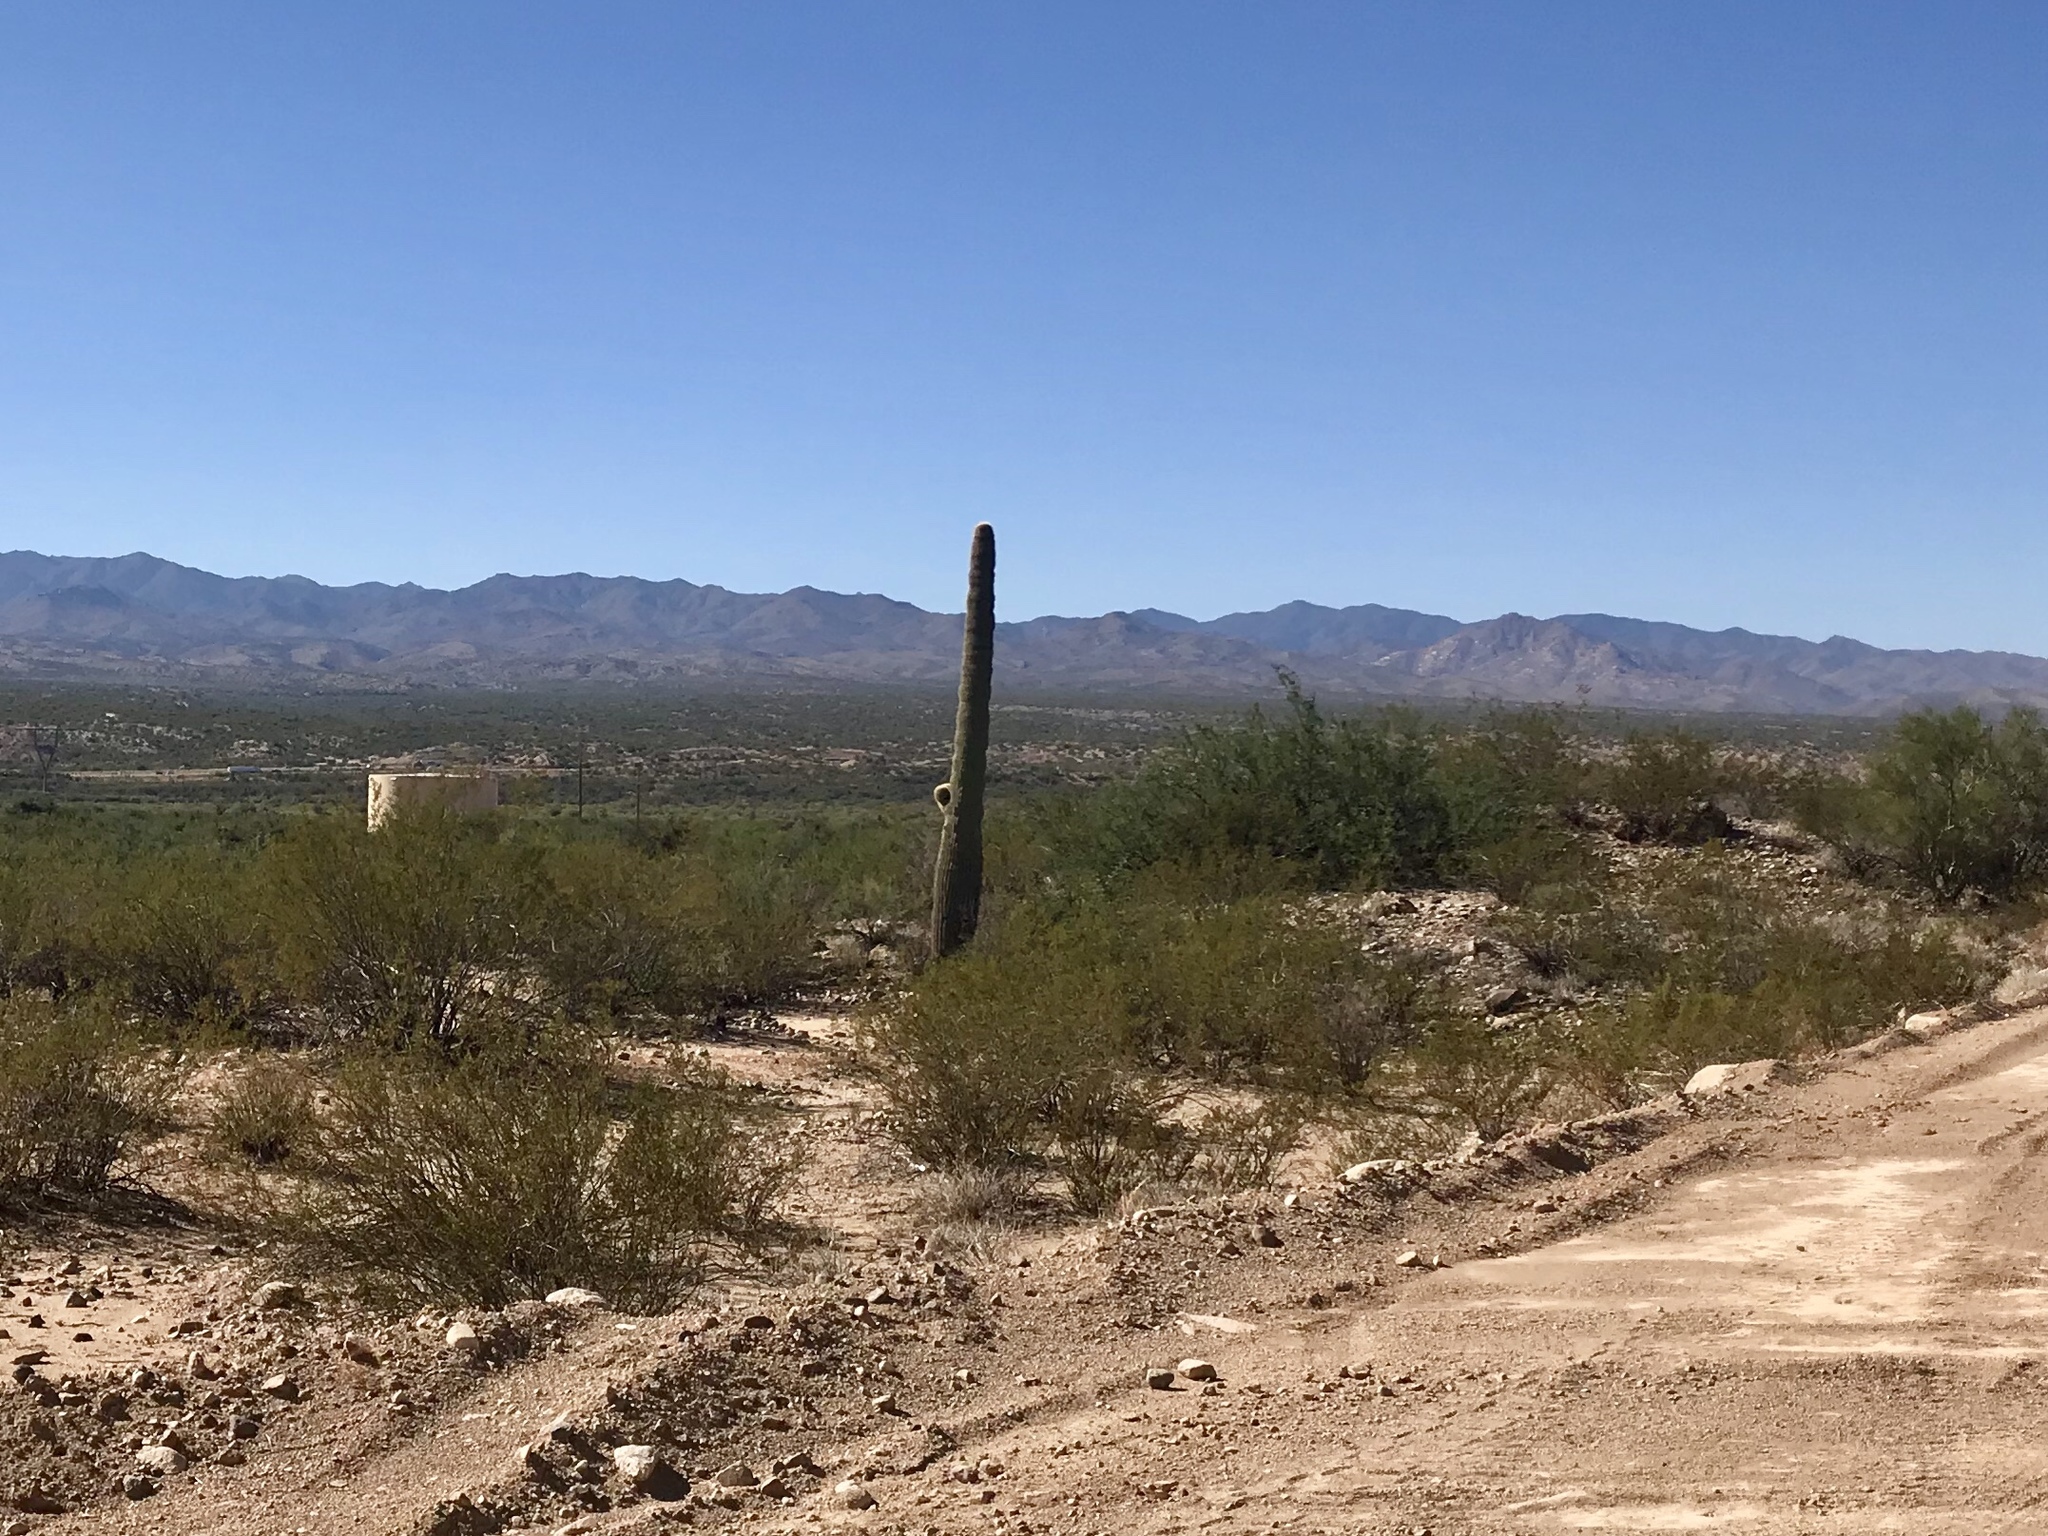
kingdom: Plantae
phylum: Tracheophyta
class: Magnoliopsida
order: Caryophyllales
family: Cactaceae
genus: Carnegiea
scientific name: Carnegiea gigantea
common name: Saguaro
